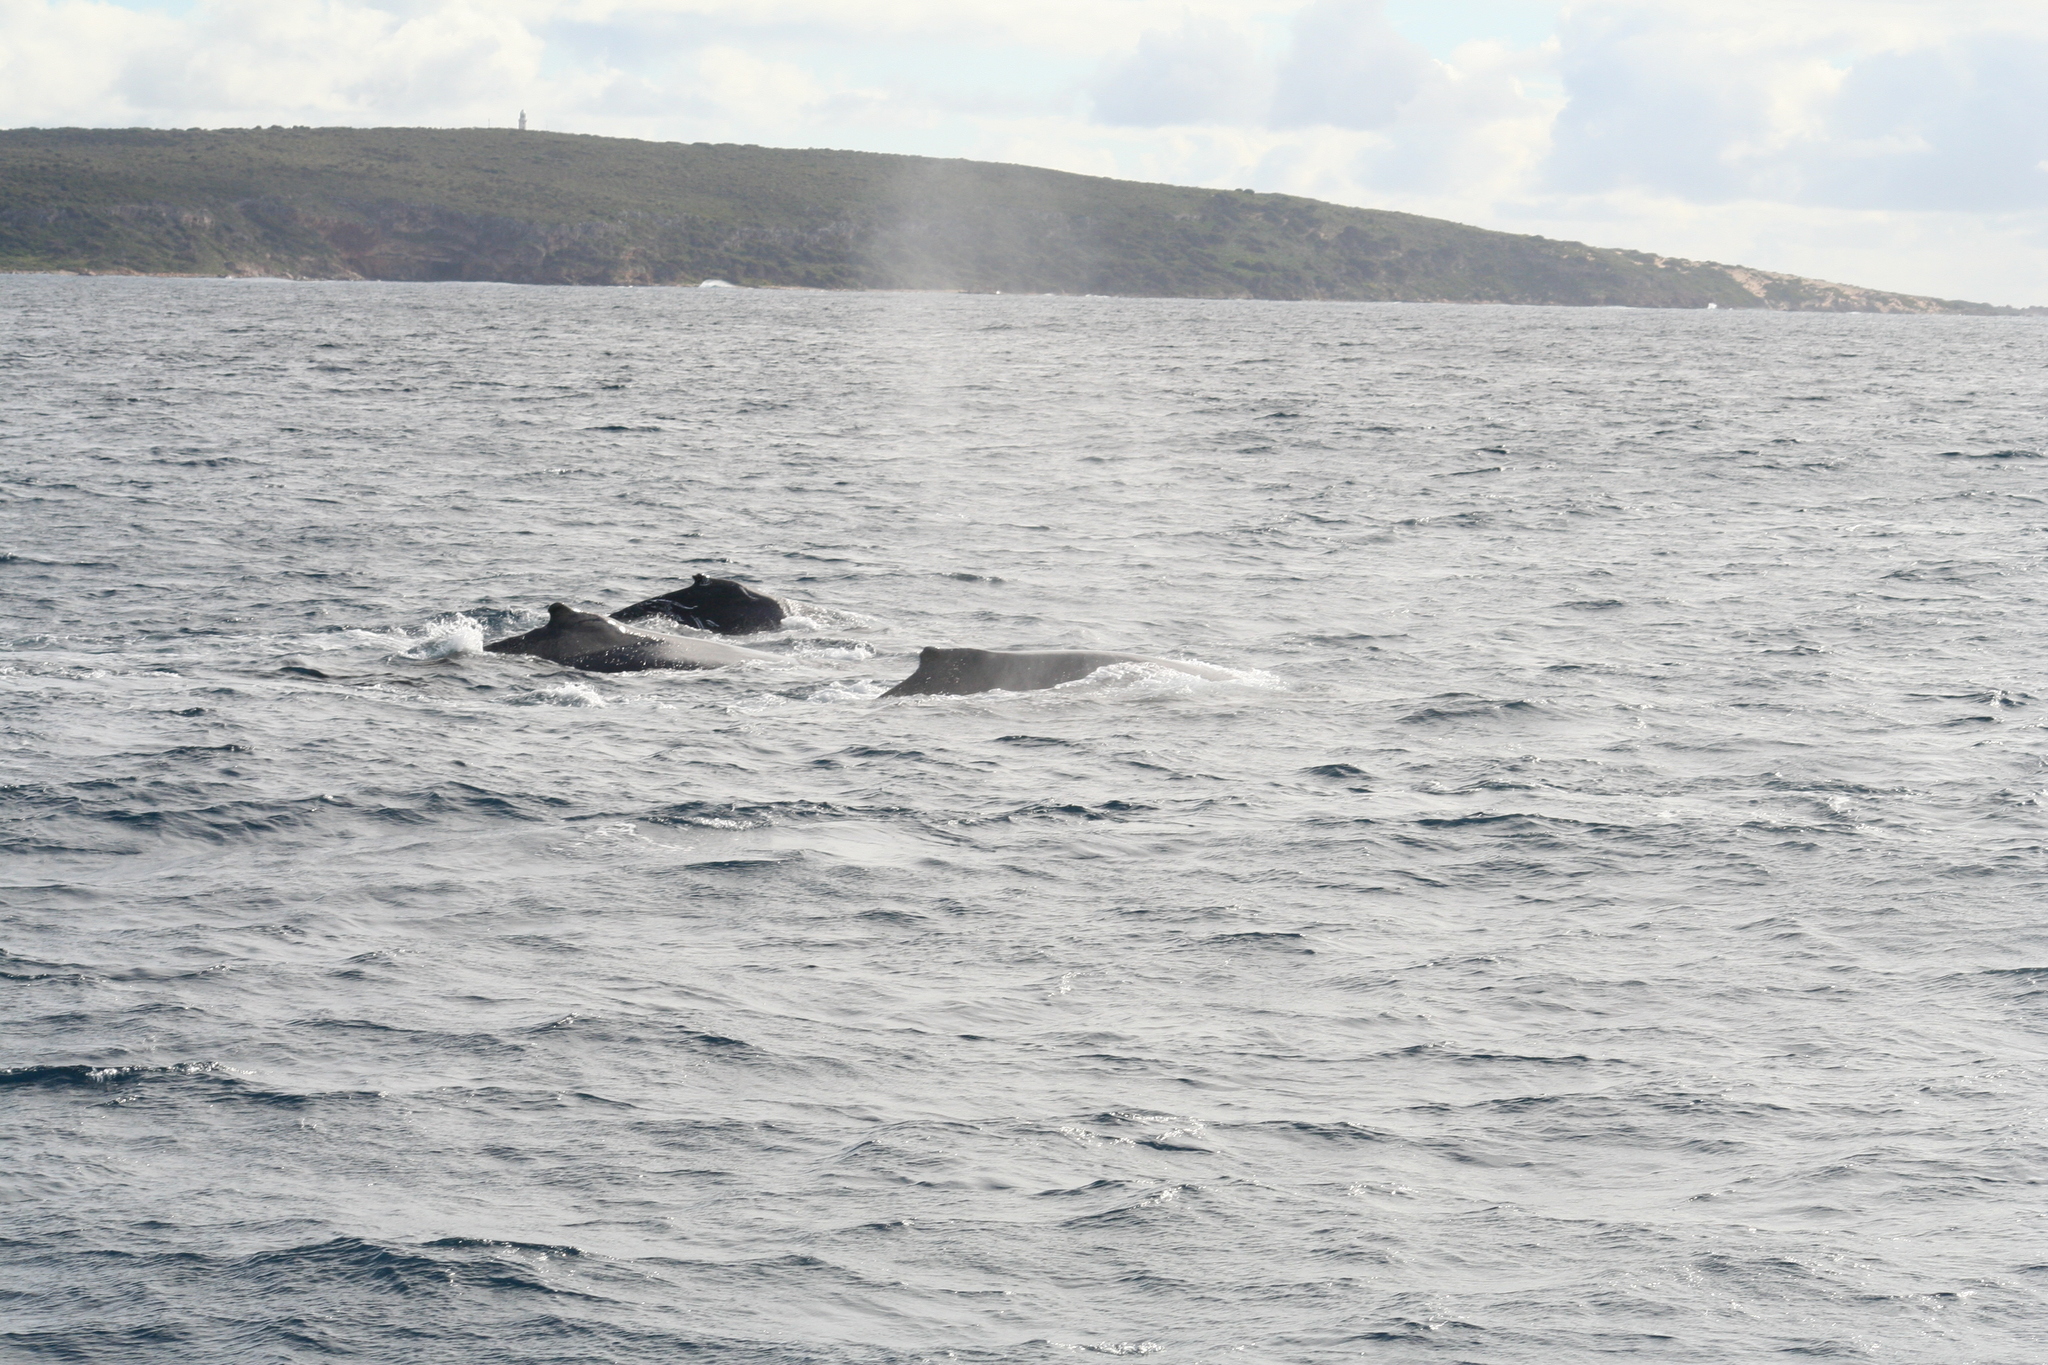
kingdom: Animalia
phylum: Chordata
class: Mammalia
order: Cetacea
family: Balaenopteridae
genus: Megaptera
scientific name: Megaptera novaeangliae
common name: Humpback whale
